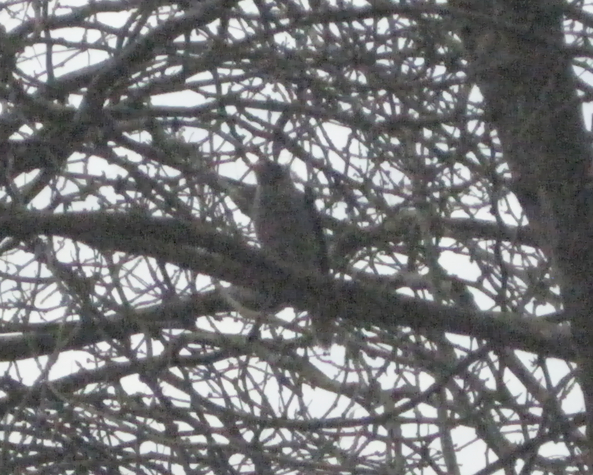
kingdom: Animalia
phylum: Chordata
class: Aves
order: Passeriformes
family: Meliphagidae
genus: Manorina
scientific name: Manorina melanocephala
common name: Noisy miner
